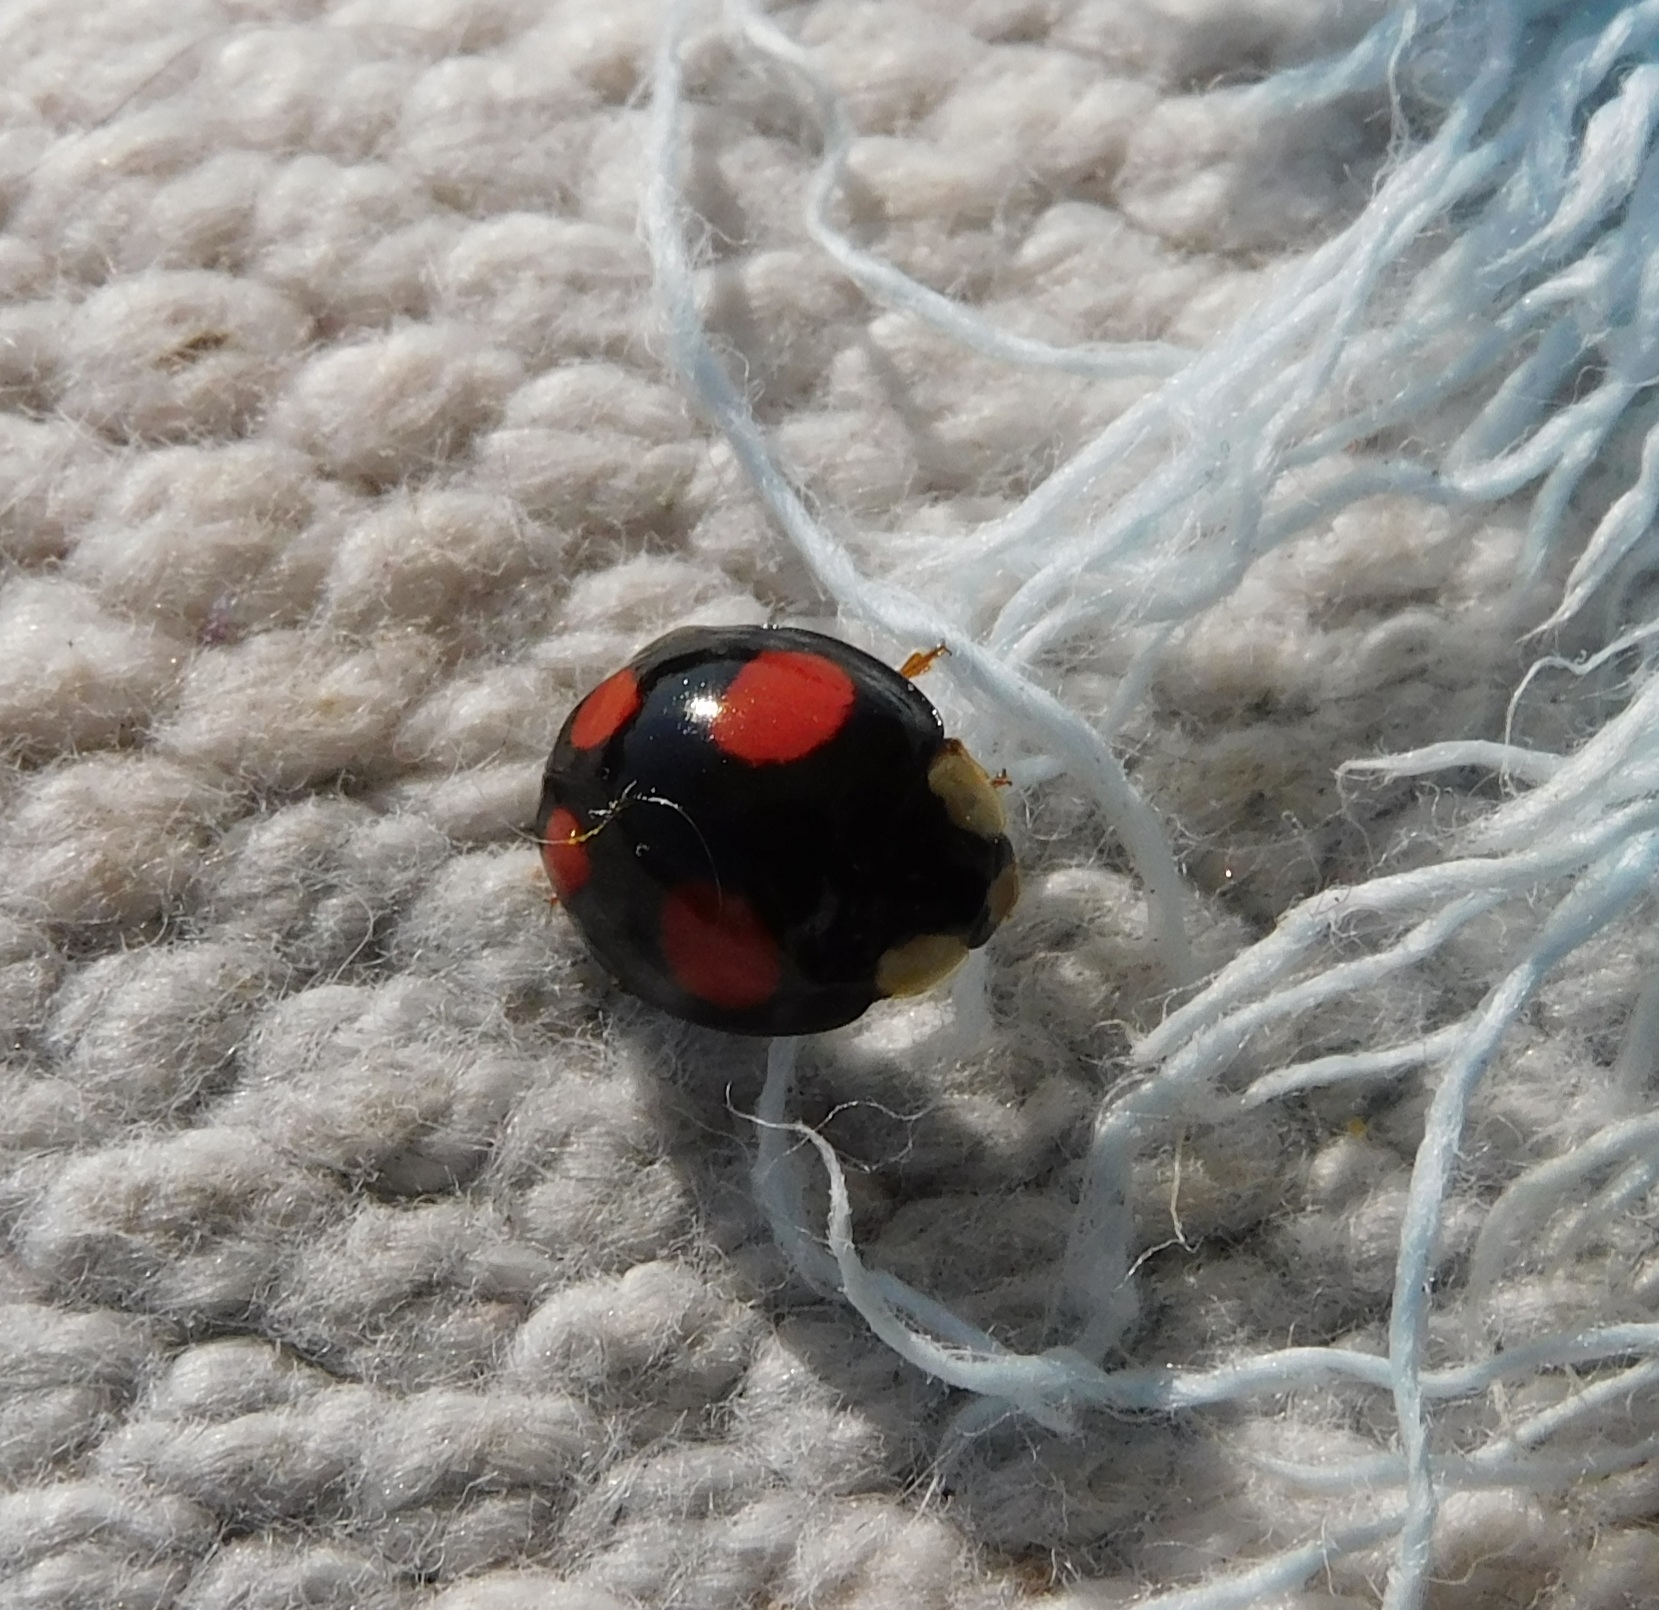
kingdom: Animalia
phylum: Arthropoda
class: Insecta
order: Coleoptera
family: Coccinellidae
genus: Harmonia
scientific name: Harmonia axyridis
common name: Harlequin ladybird
